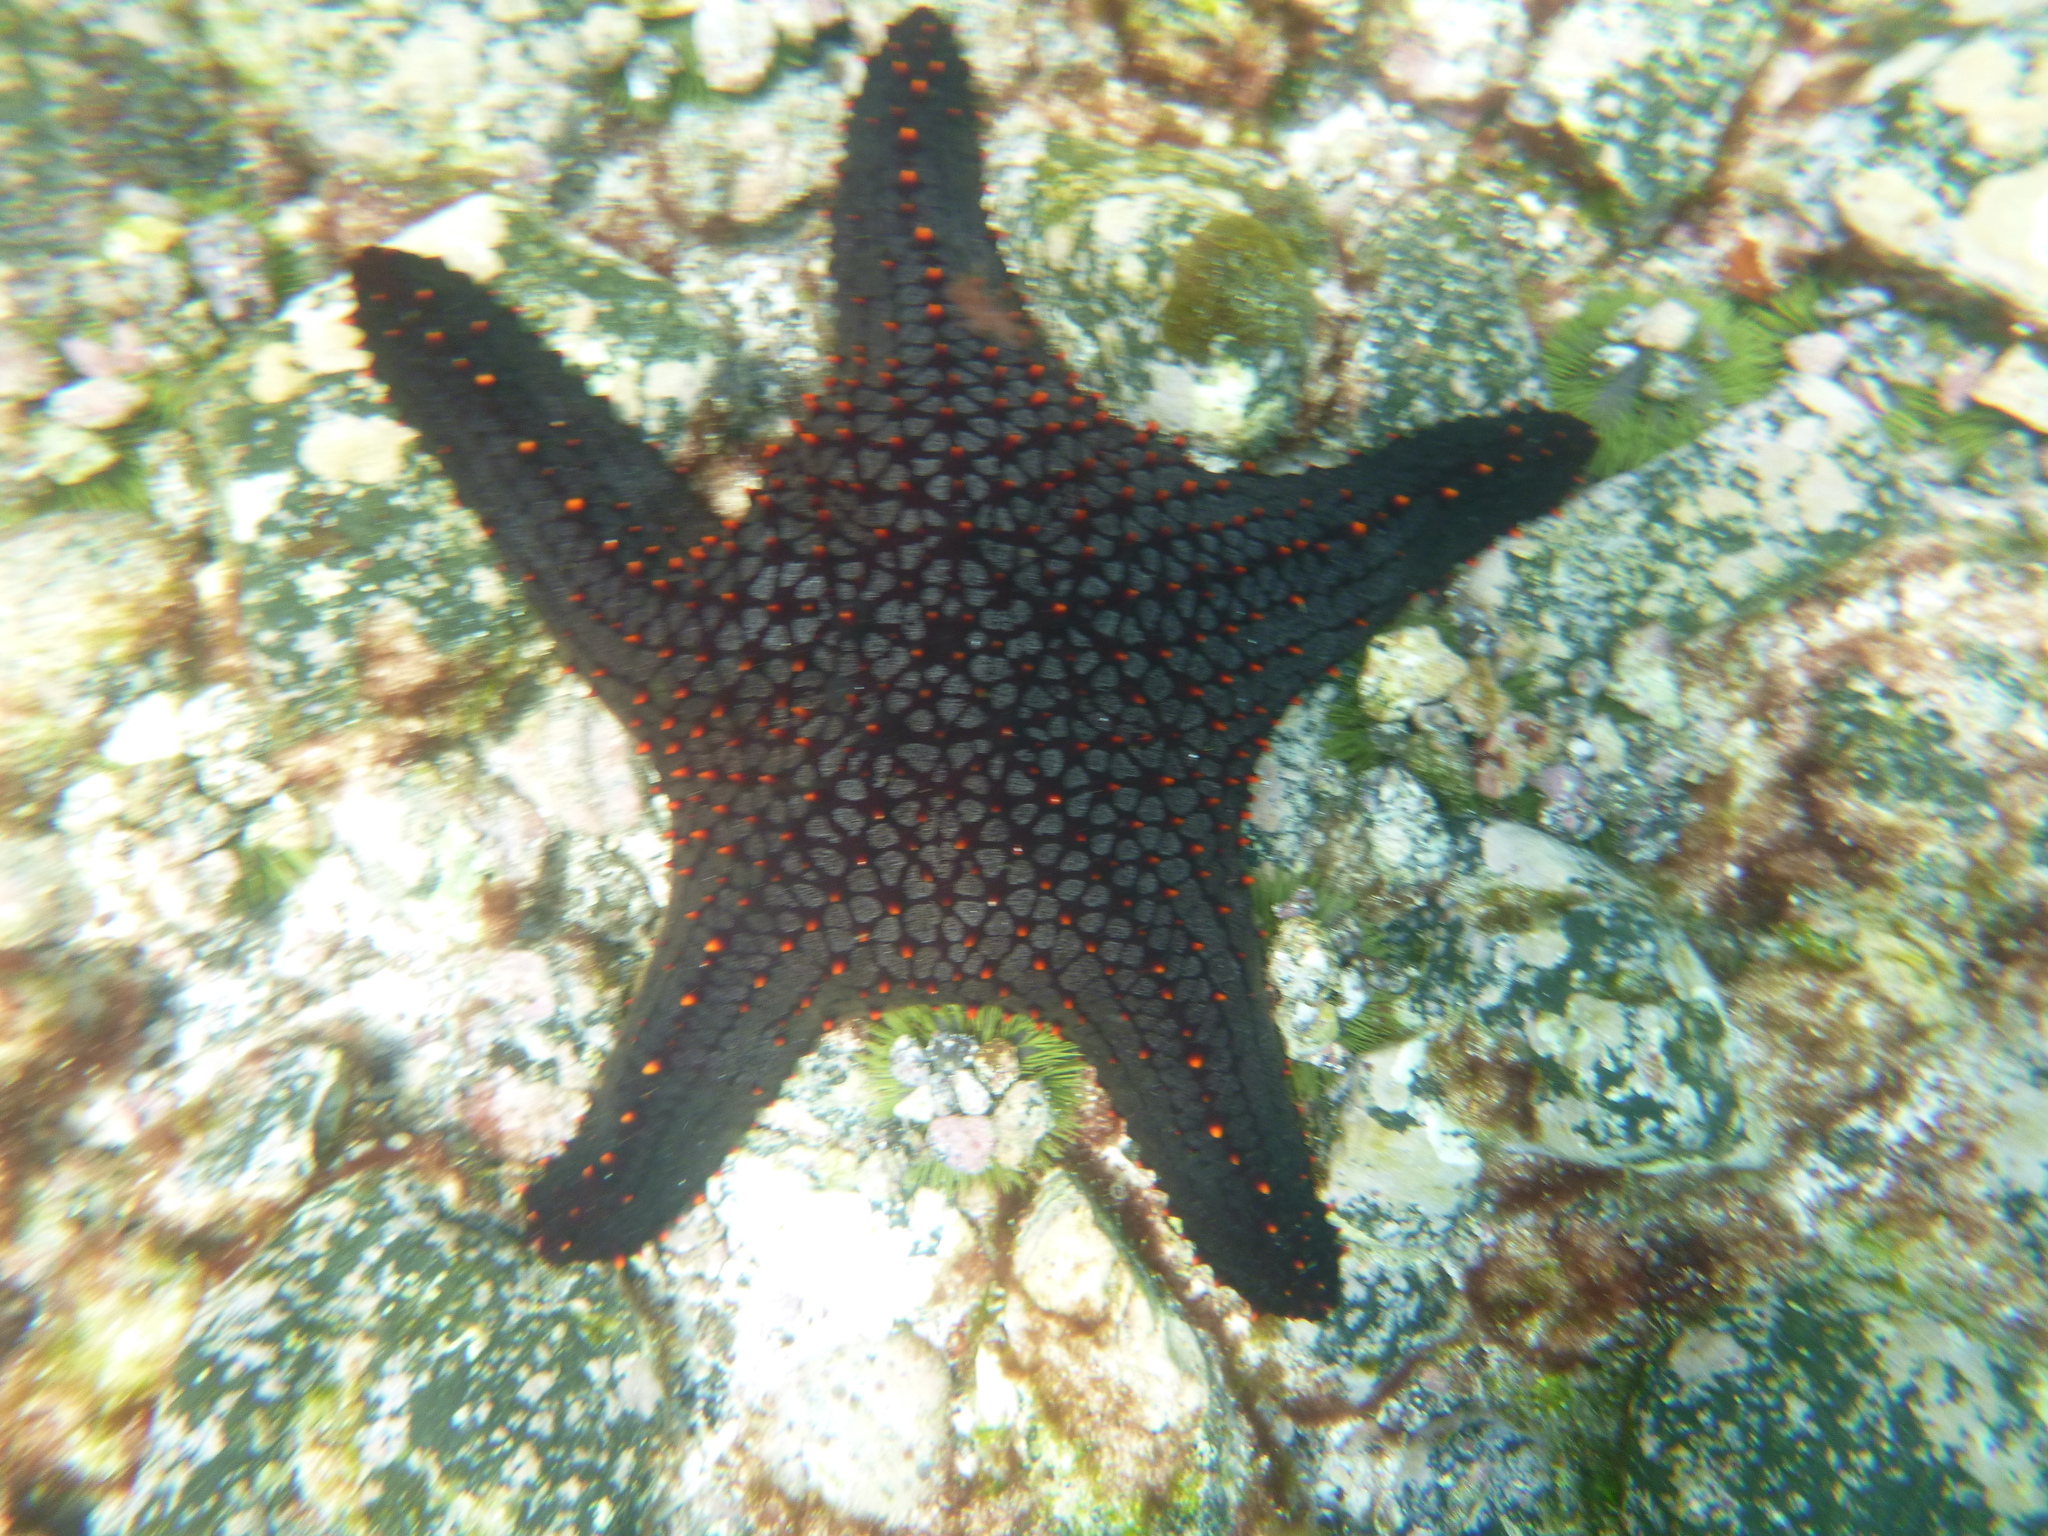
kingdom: Animalia
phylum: Echinodermata
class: Asteroidea
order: Valvatida
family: Oreasteridae
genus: Pentaceraster
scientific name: Pentaceraster cumingi
